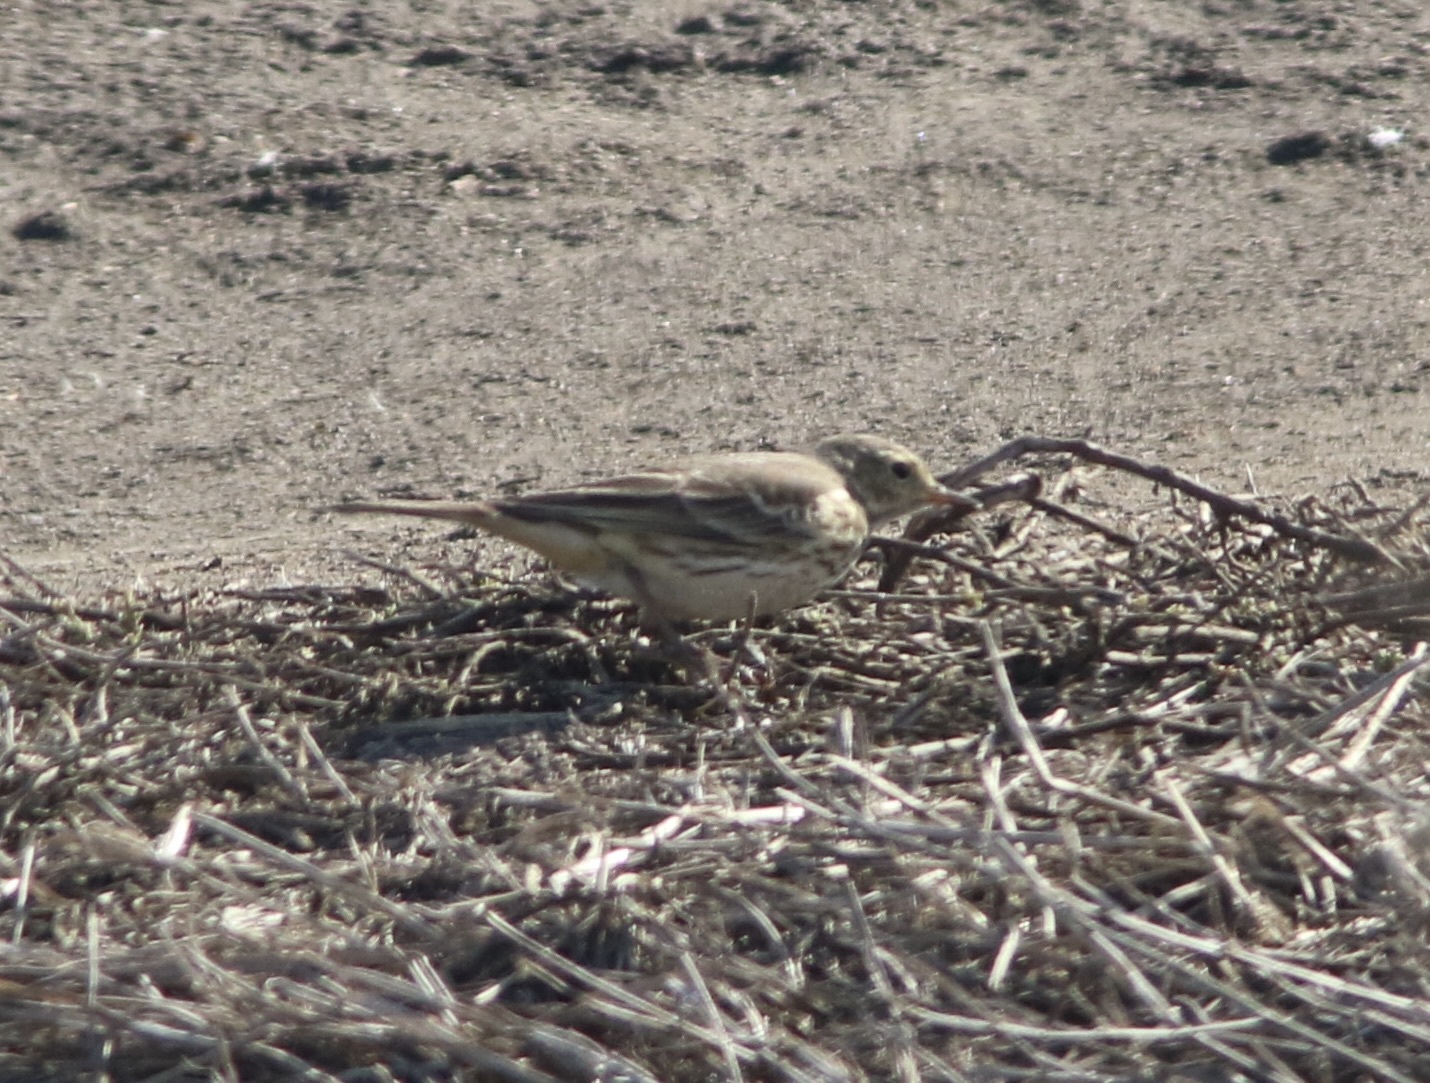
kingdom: Animalia
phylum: Chordata
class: Aves
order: Passeriformes
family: Motacillidae
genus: Anthus
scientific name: Anthus rubescens
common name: Buff-bellied pipit
